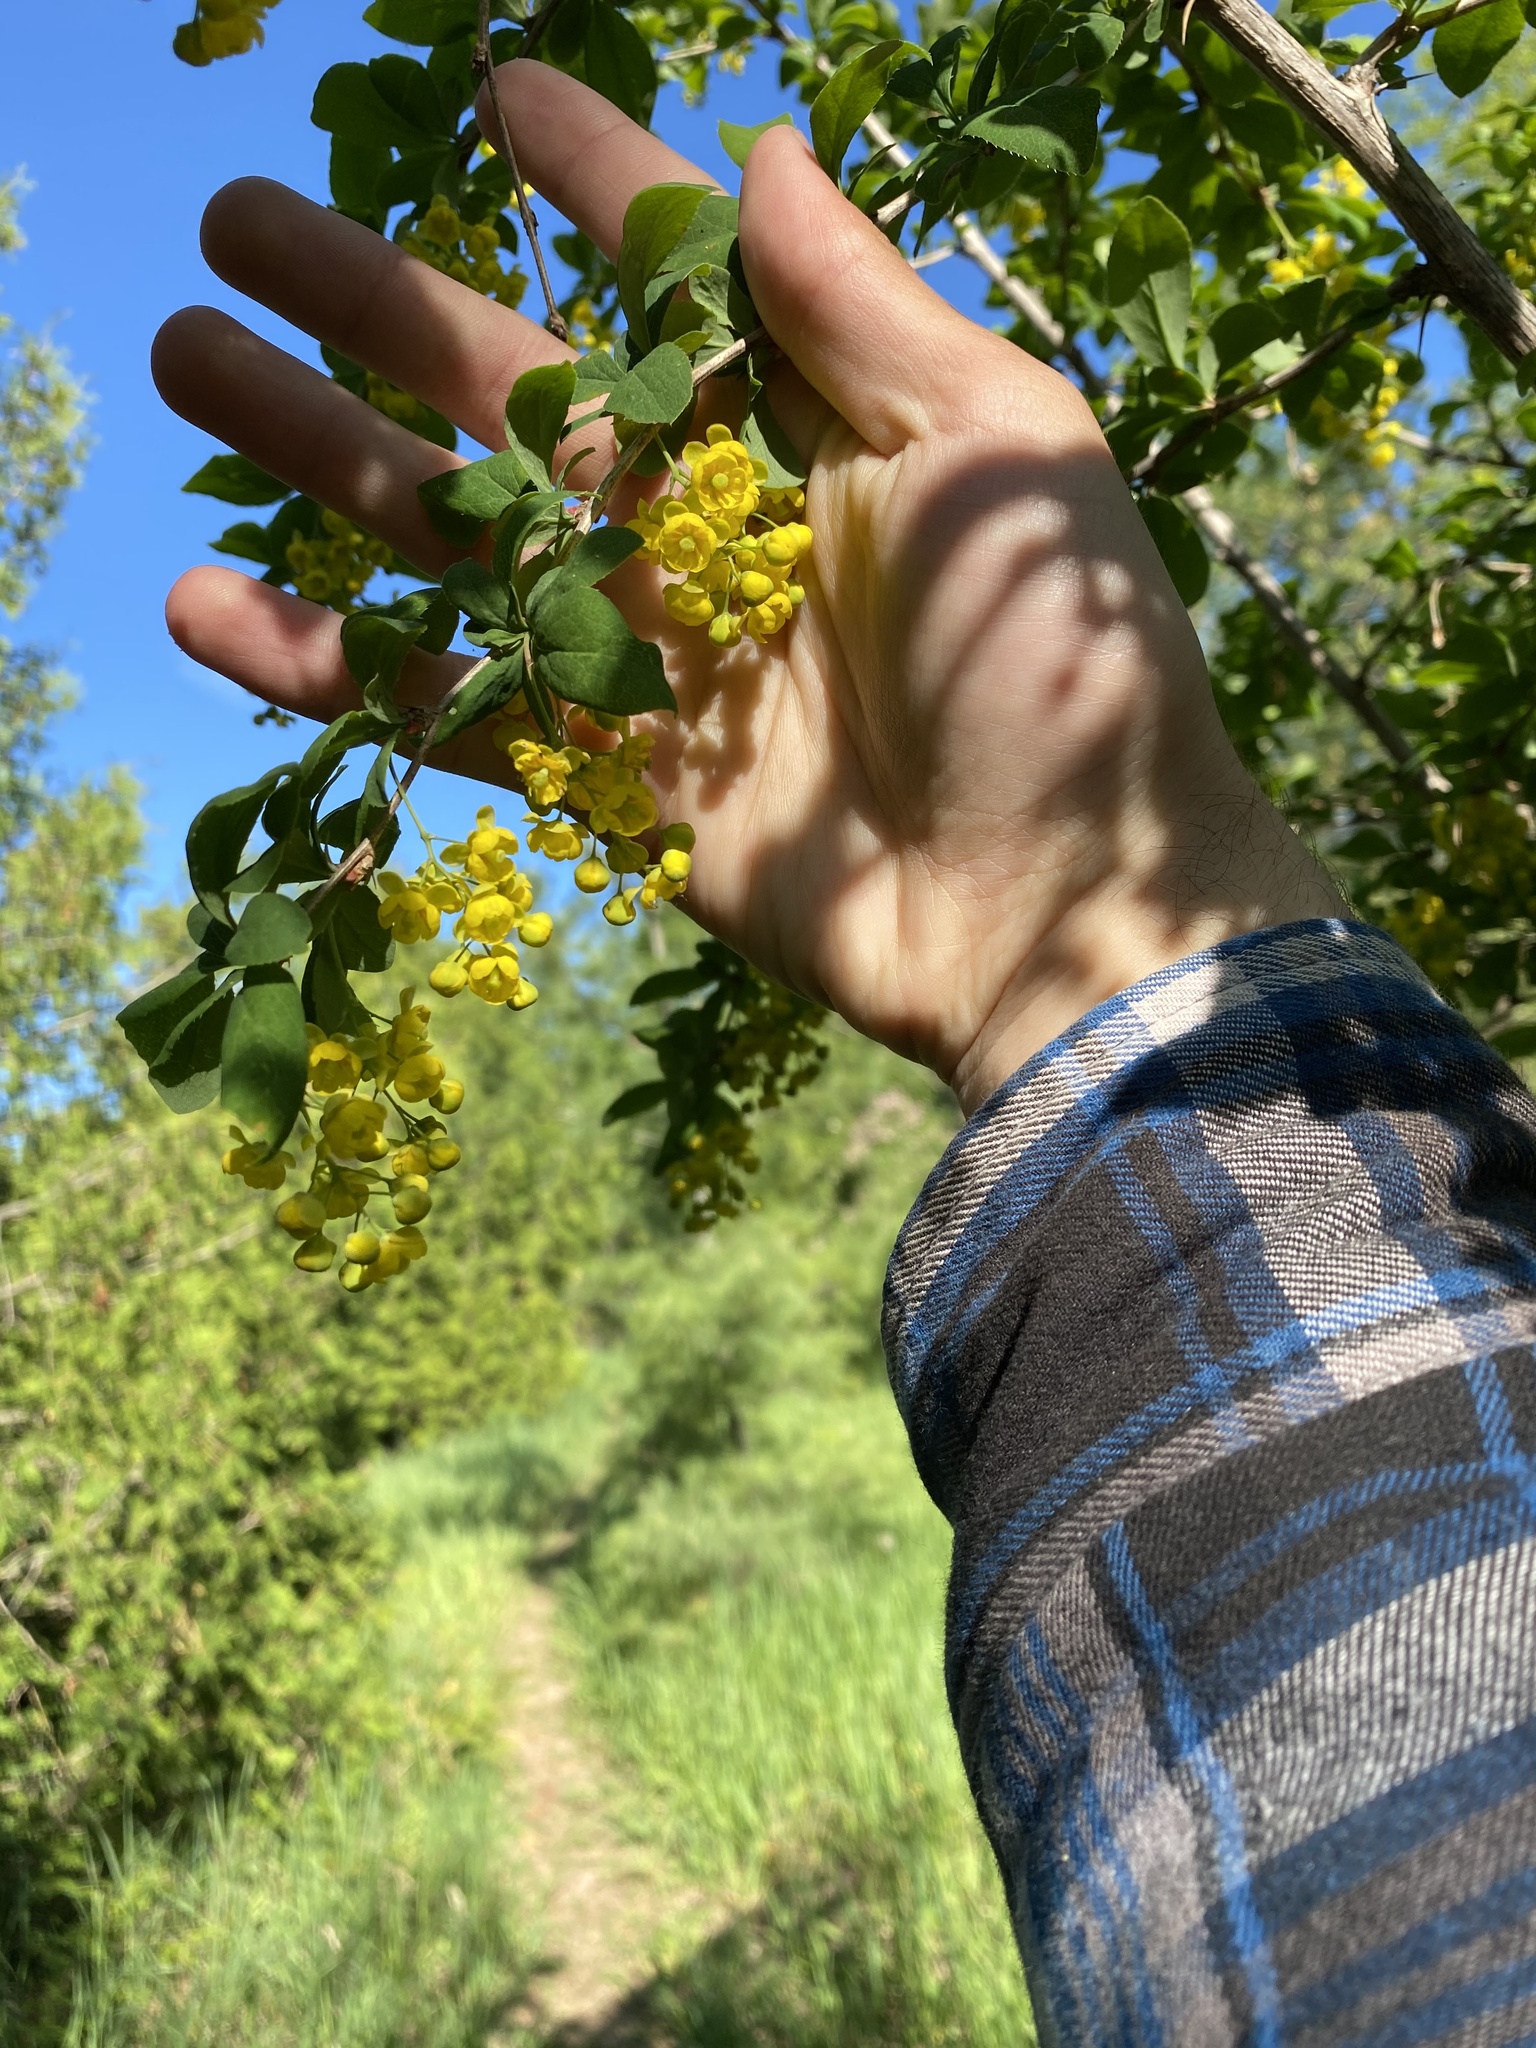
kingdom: Plantae
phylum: Tracheophyta
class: Magnoliopsida
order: Ranunculales
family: Berberidaceae
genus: Berberis
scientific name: Berberis vulgaris
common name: Barberry
